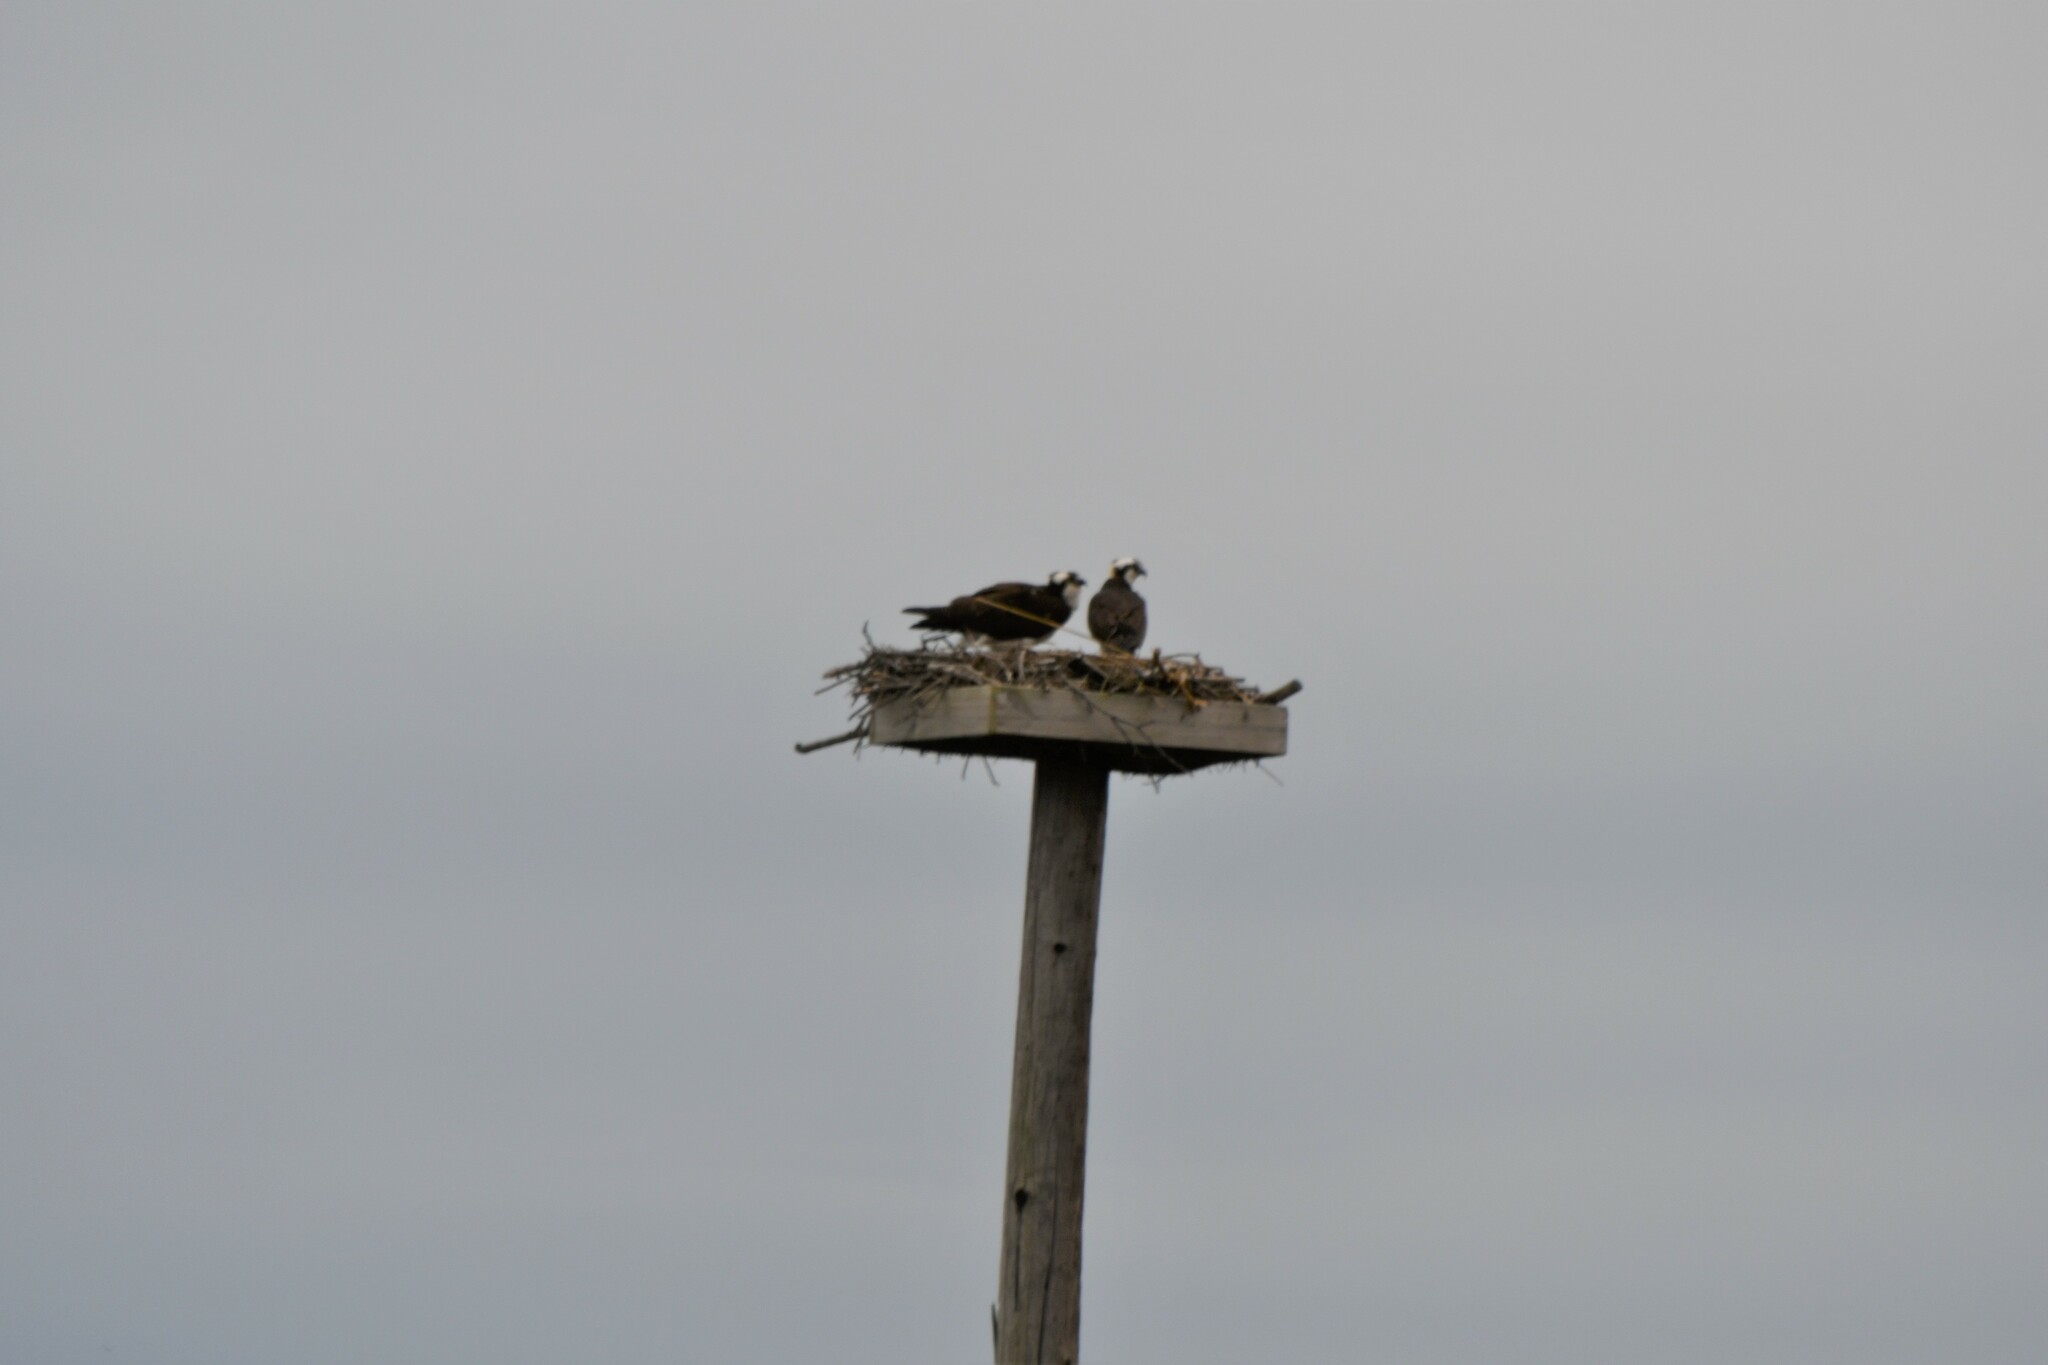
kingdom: Animalia
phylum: Chordata
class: Aves
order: Accipitriformes
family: Pandionidae
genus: Pandion
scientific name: Pandion haliaetus
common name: Osprey
